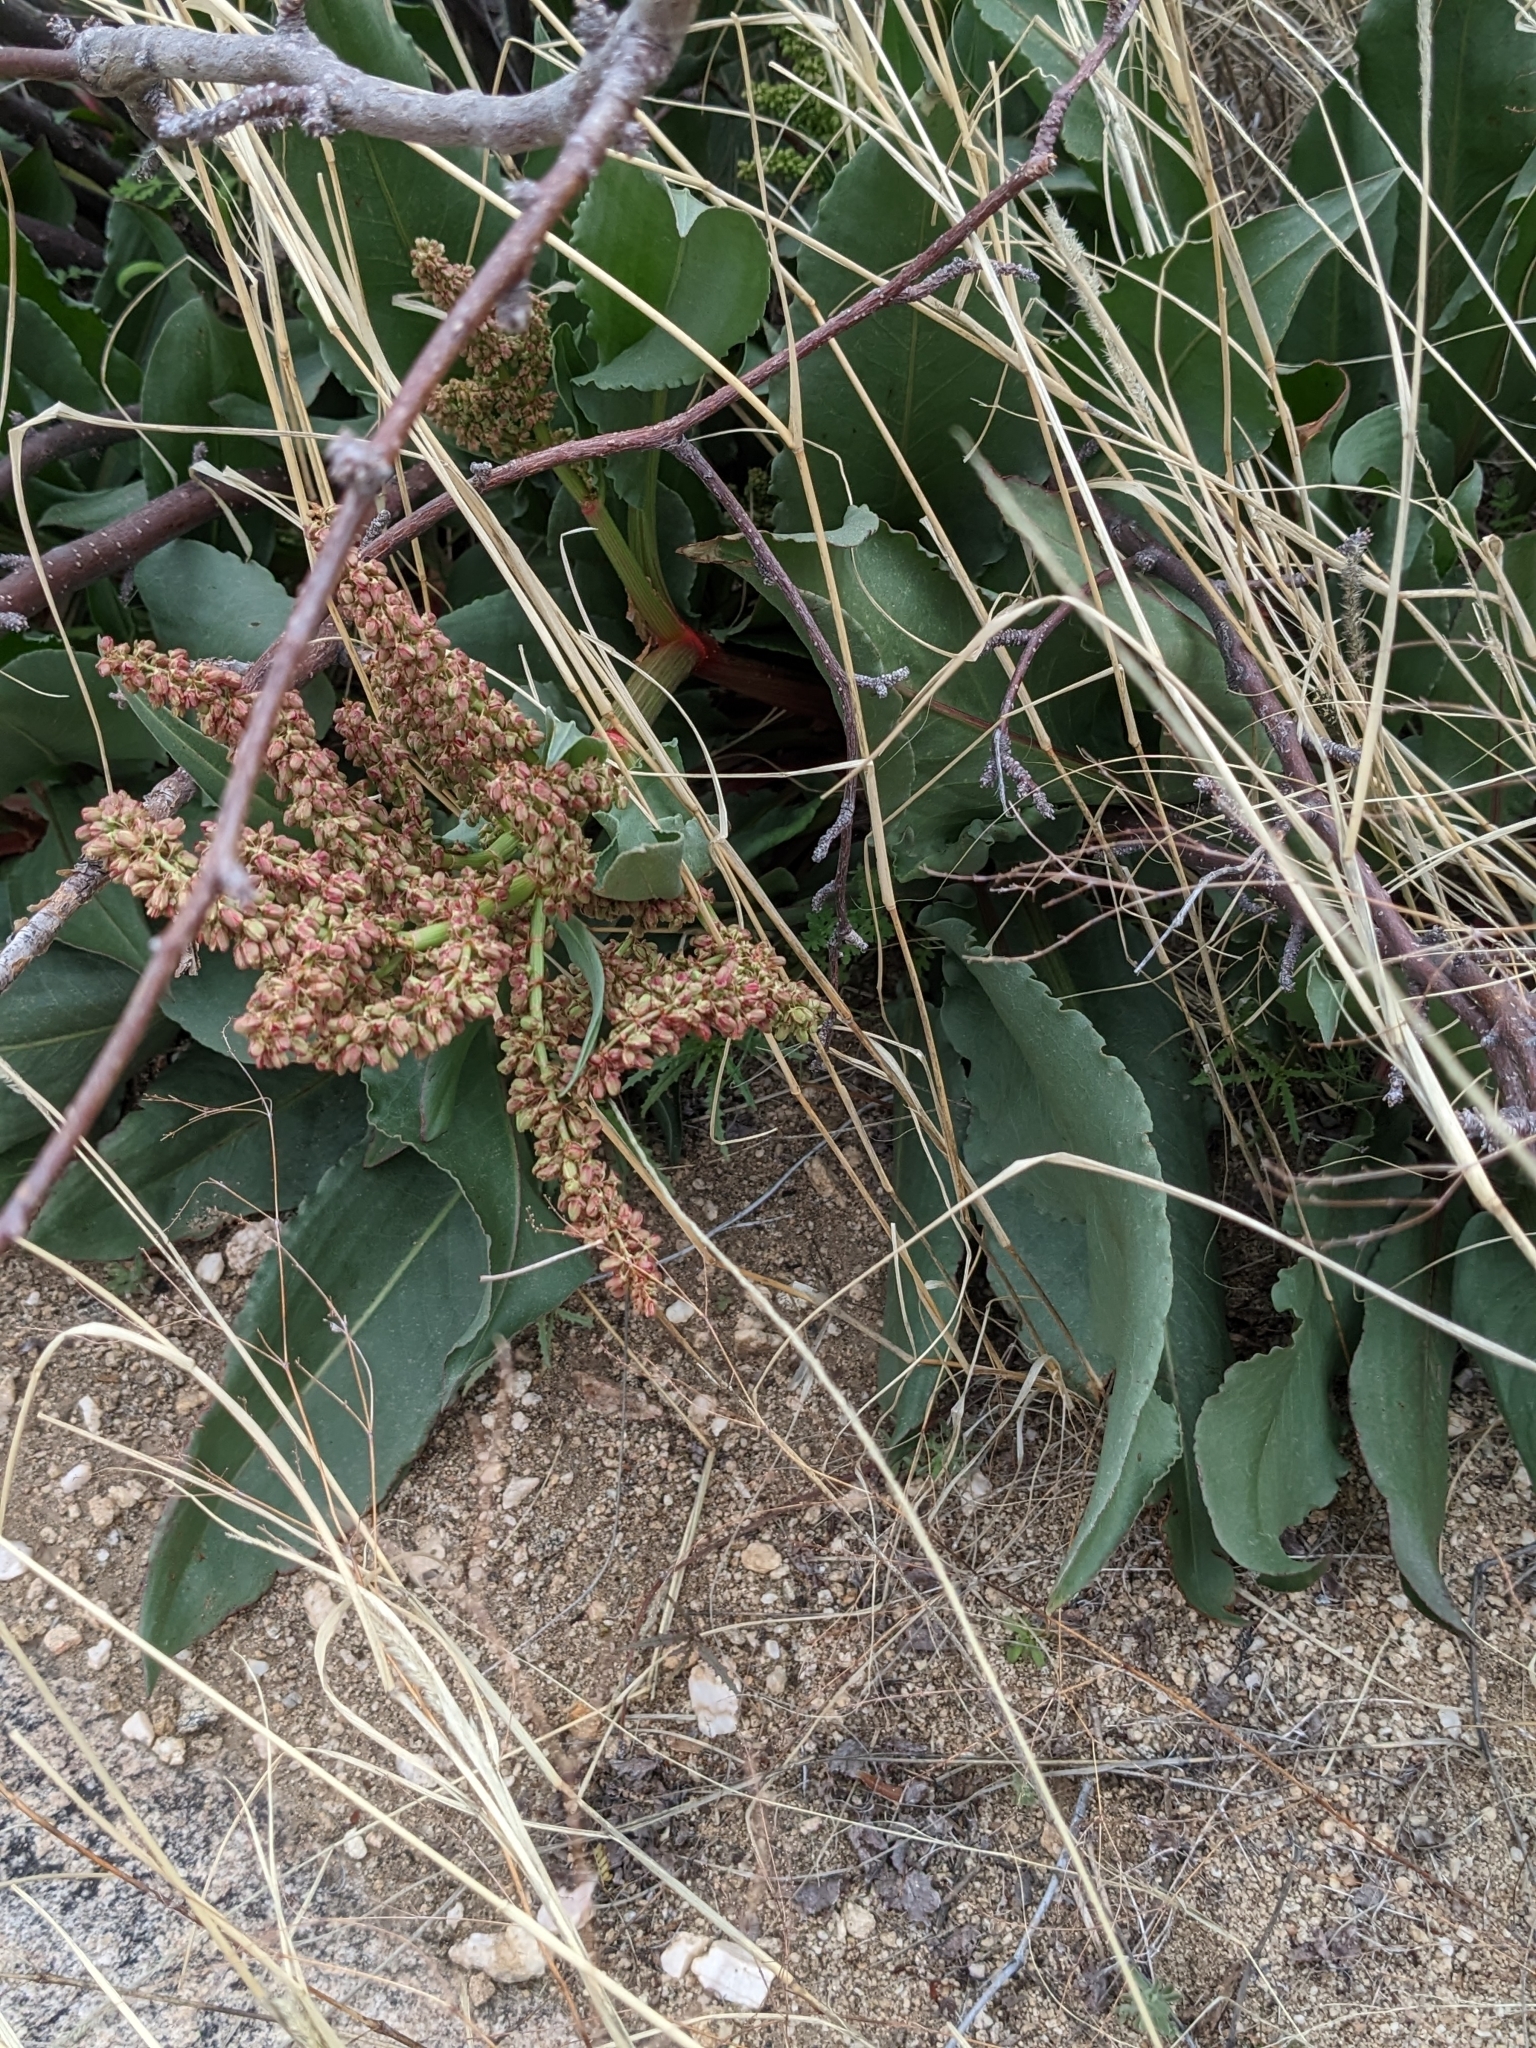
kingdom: Plantae
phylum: Tracheophyta
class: Magnoliopsida
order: Caryophyllales
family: Polygonaceae
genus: Rumex
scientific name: Rumex hymenosepalus
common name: Ganagra
